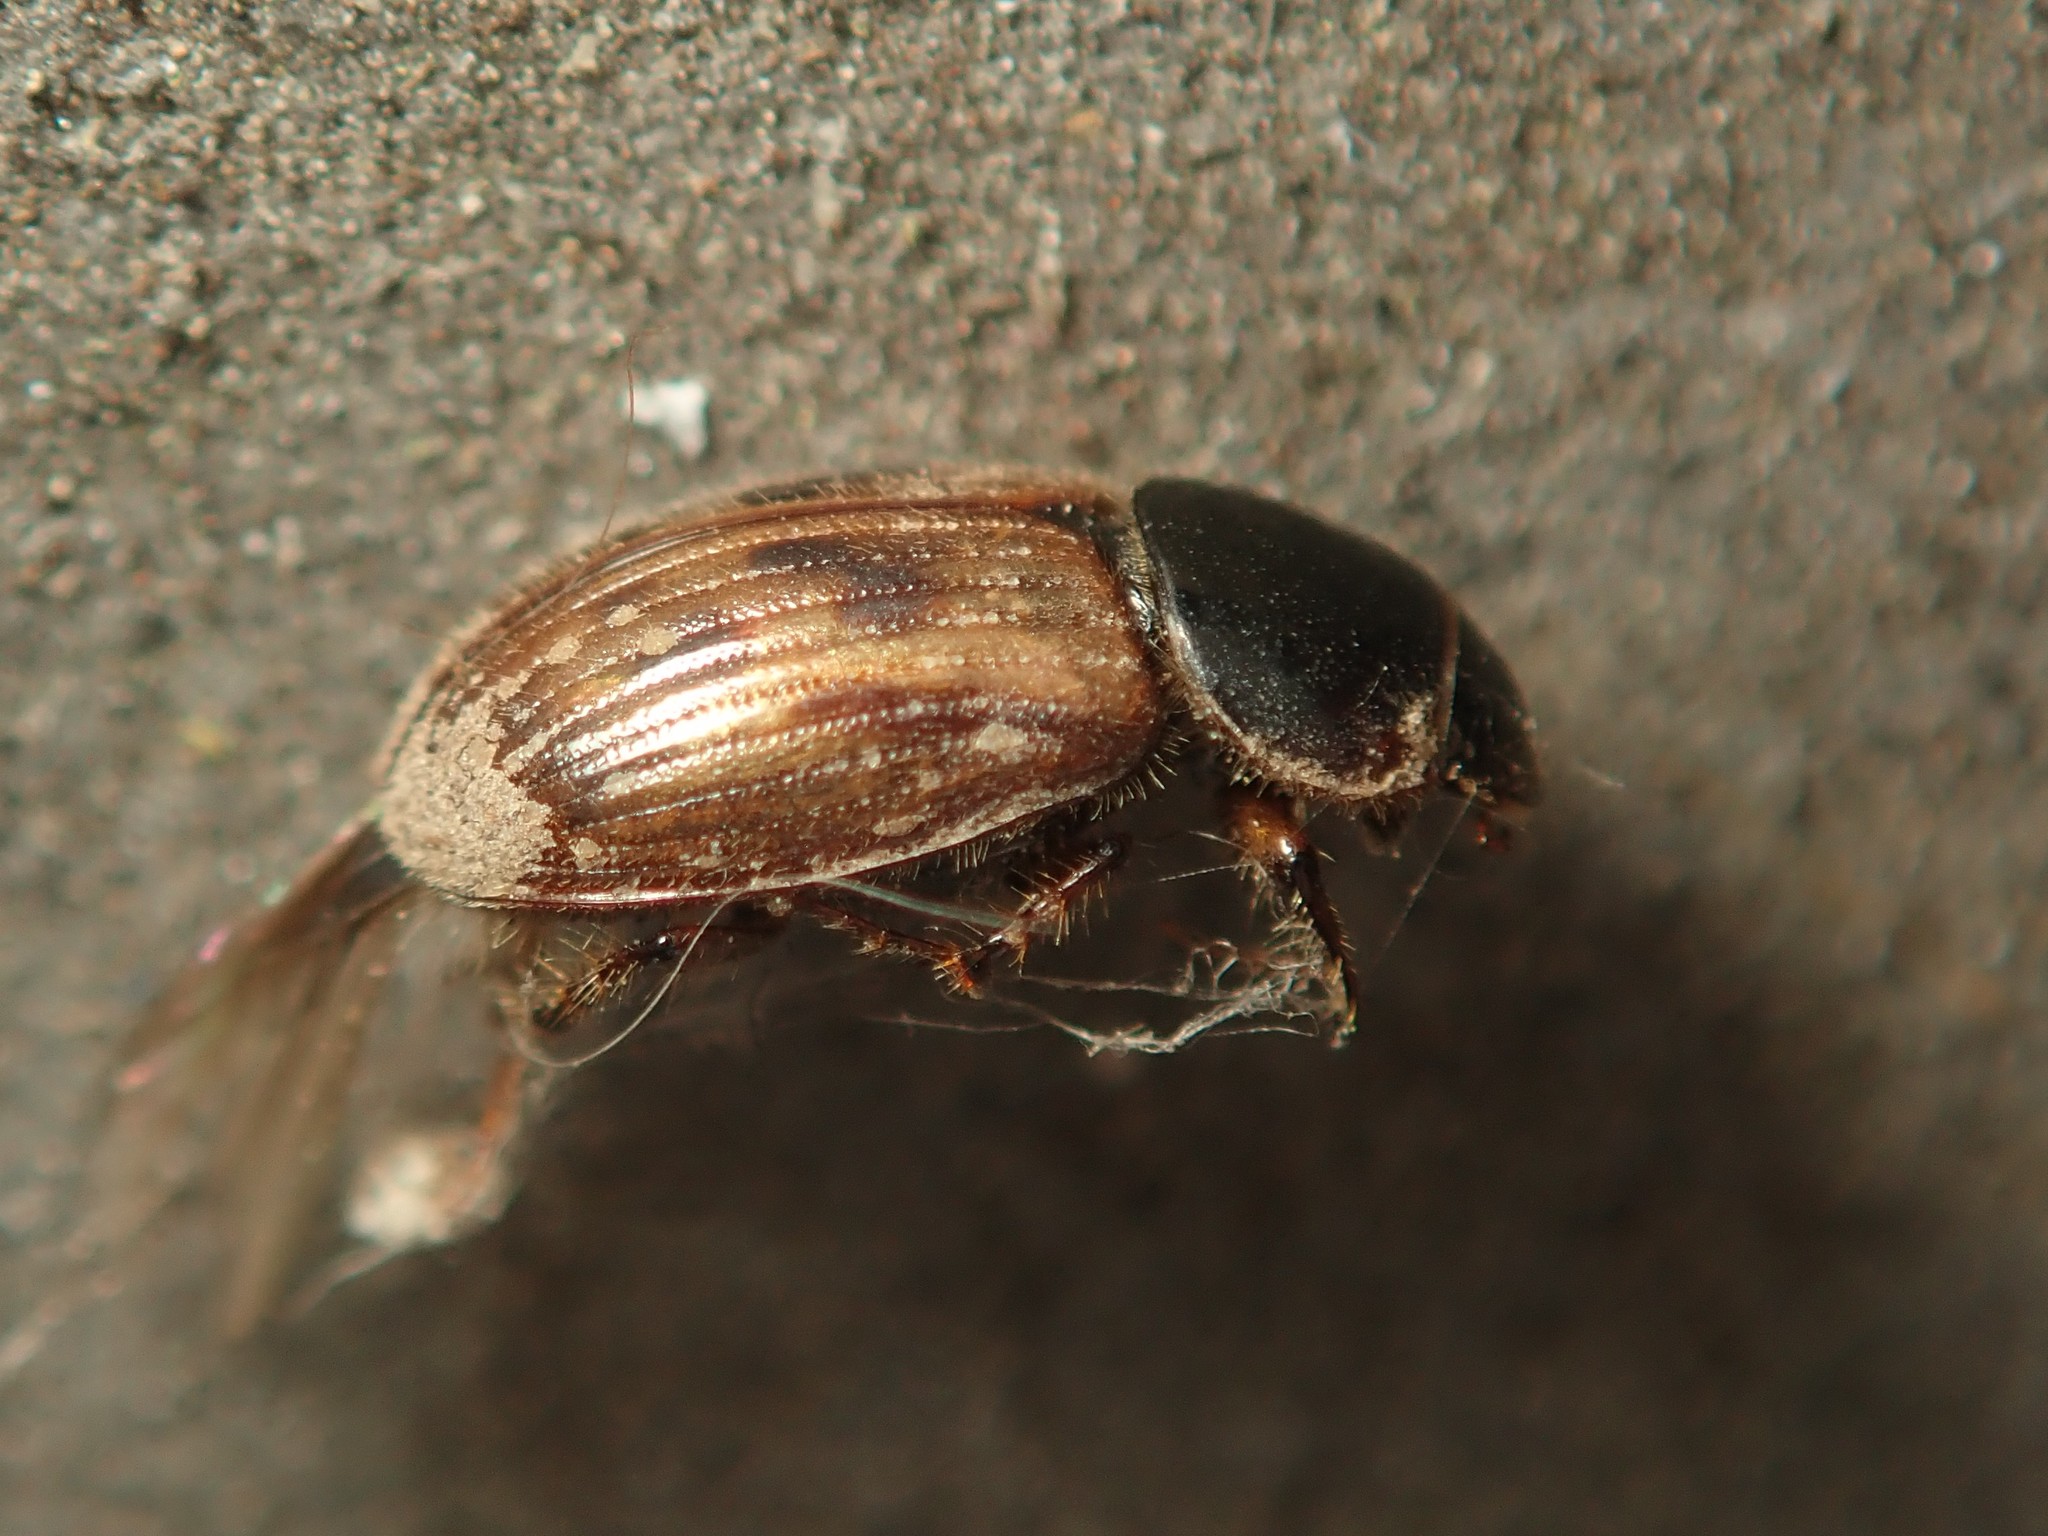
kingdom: Animalia
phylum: Arthropoda
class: Insecta
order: Coleoptera
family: Scarabaeidae
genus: Nimbus
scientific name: Nimbus contaminatus
